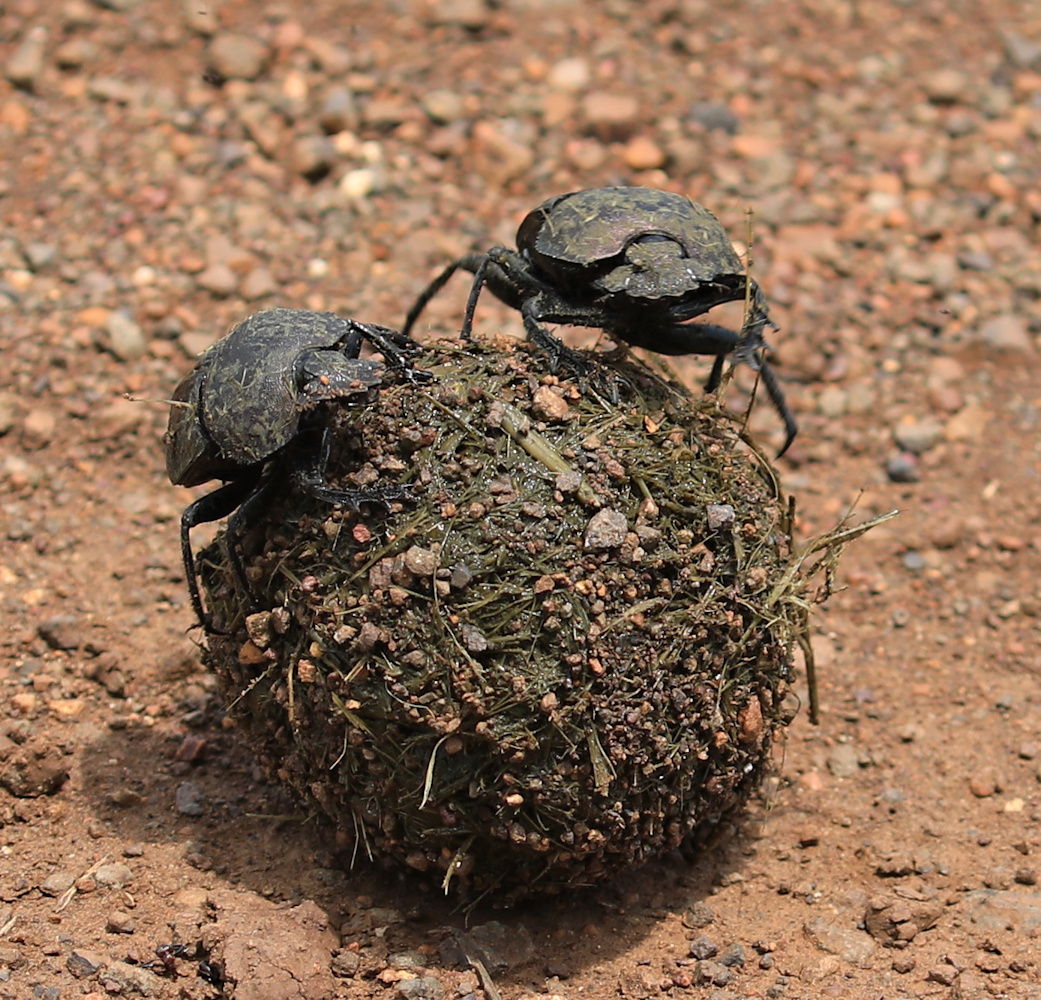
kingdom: Animalia
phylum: Arthropoda
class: Insecta
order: Coleoptera
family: Scarabaeidae
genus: Kheper
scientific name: Kheper nigroaeneus
